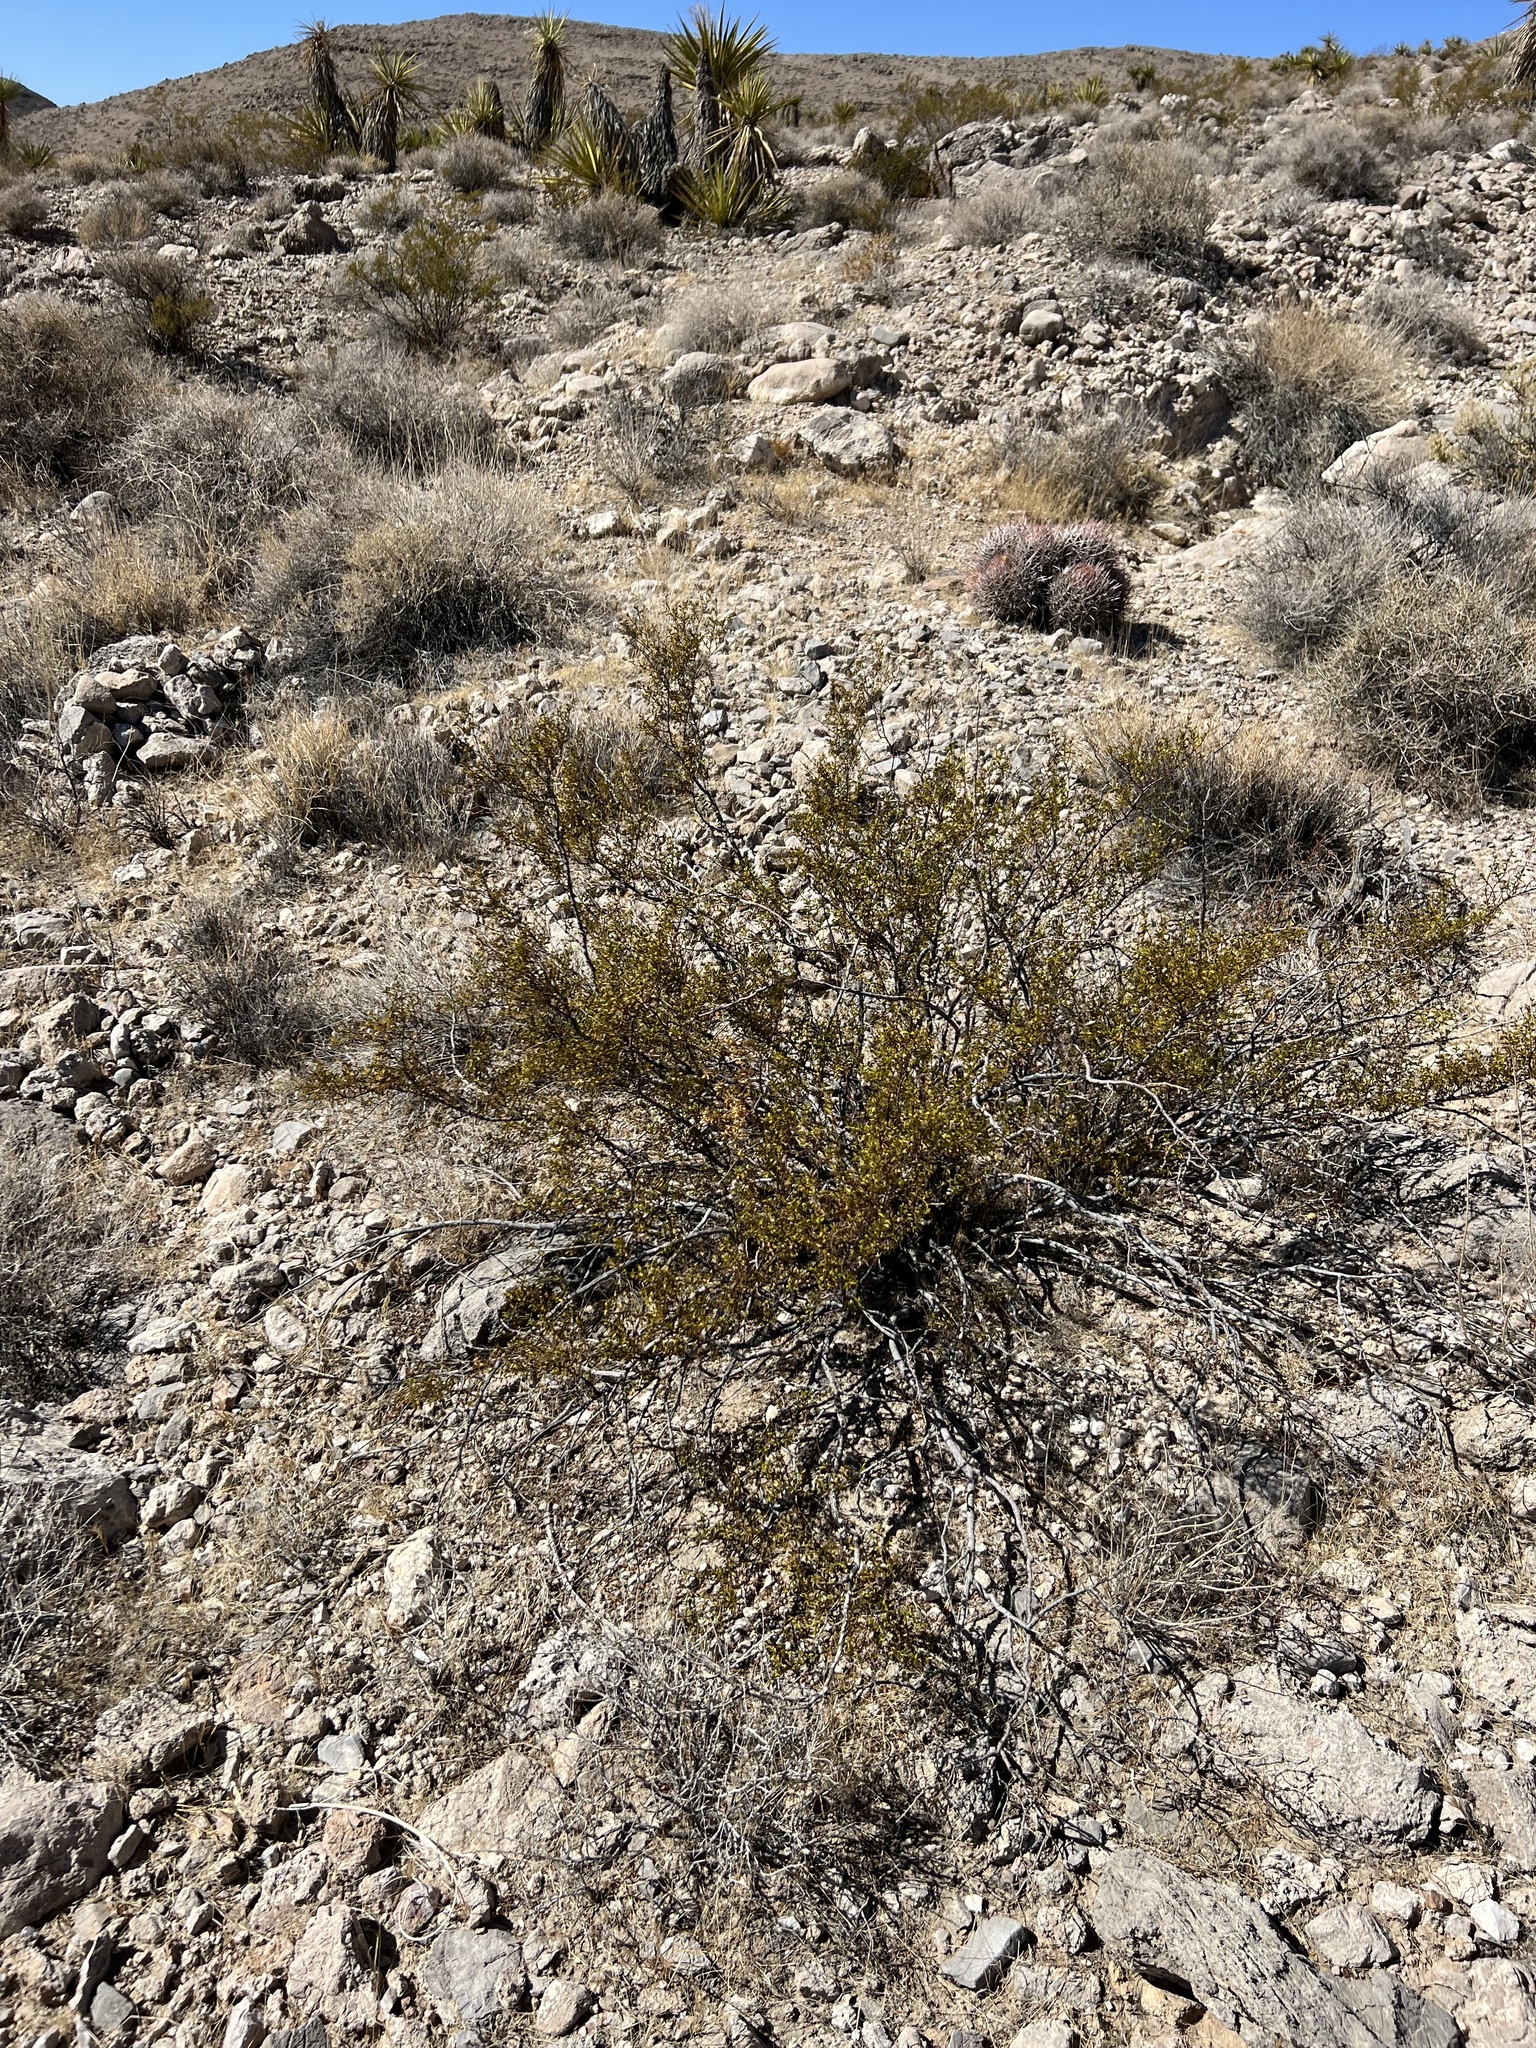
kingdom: Plantae
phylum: Tracheophyta
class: Magnoliopsida
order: Zygophyllales
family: Zygophyllaceae
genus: Larrea
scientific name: Larrea tridentata
